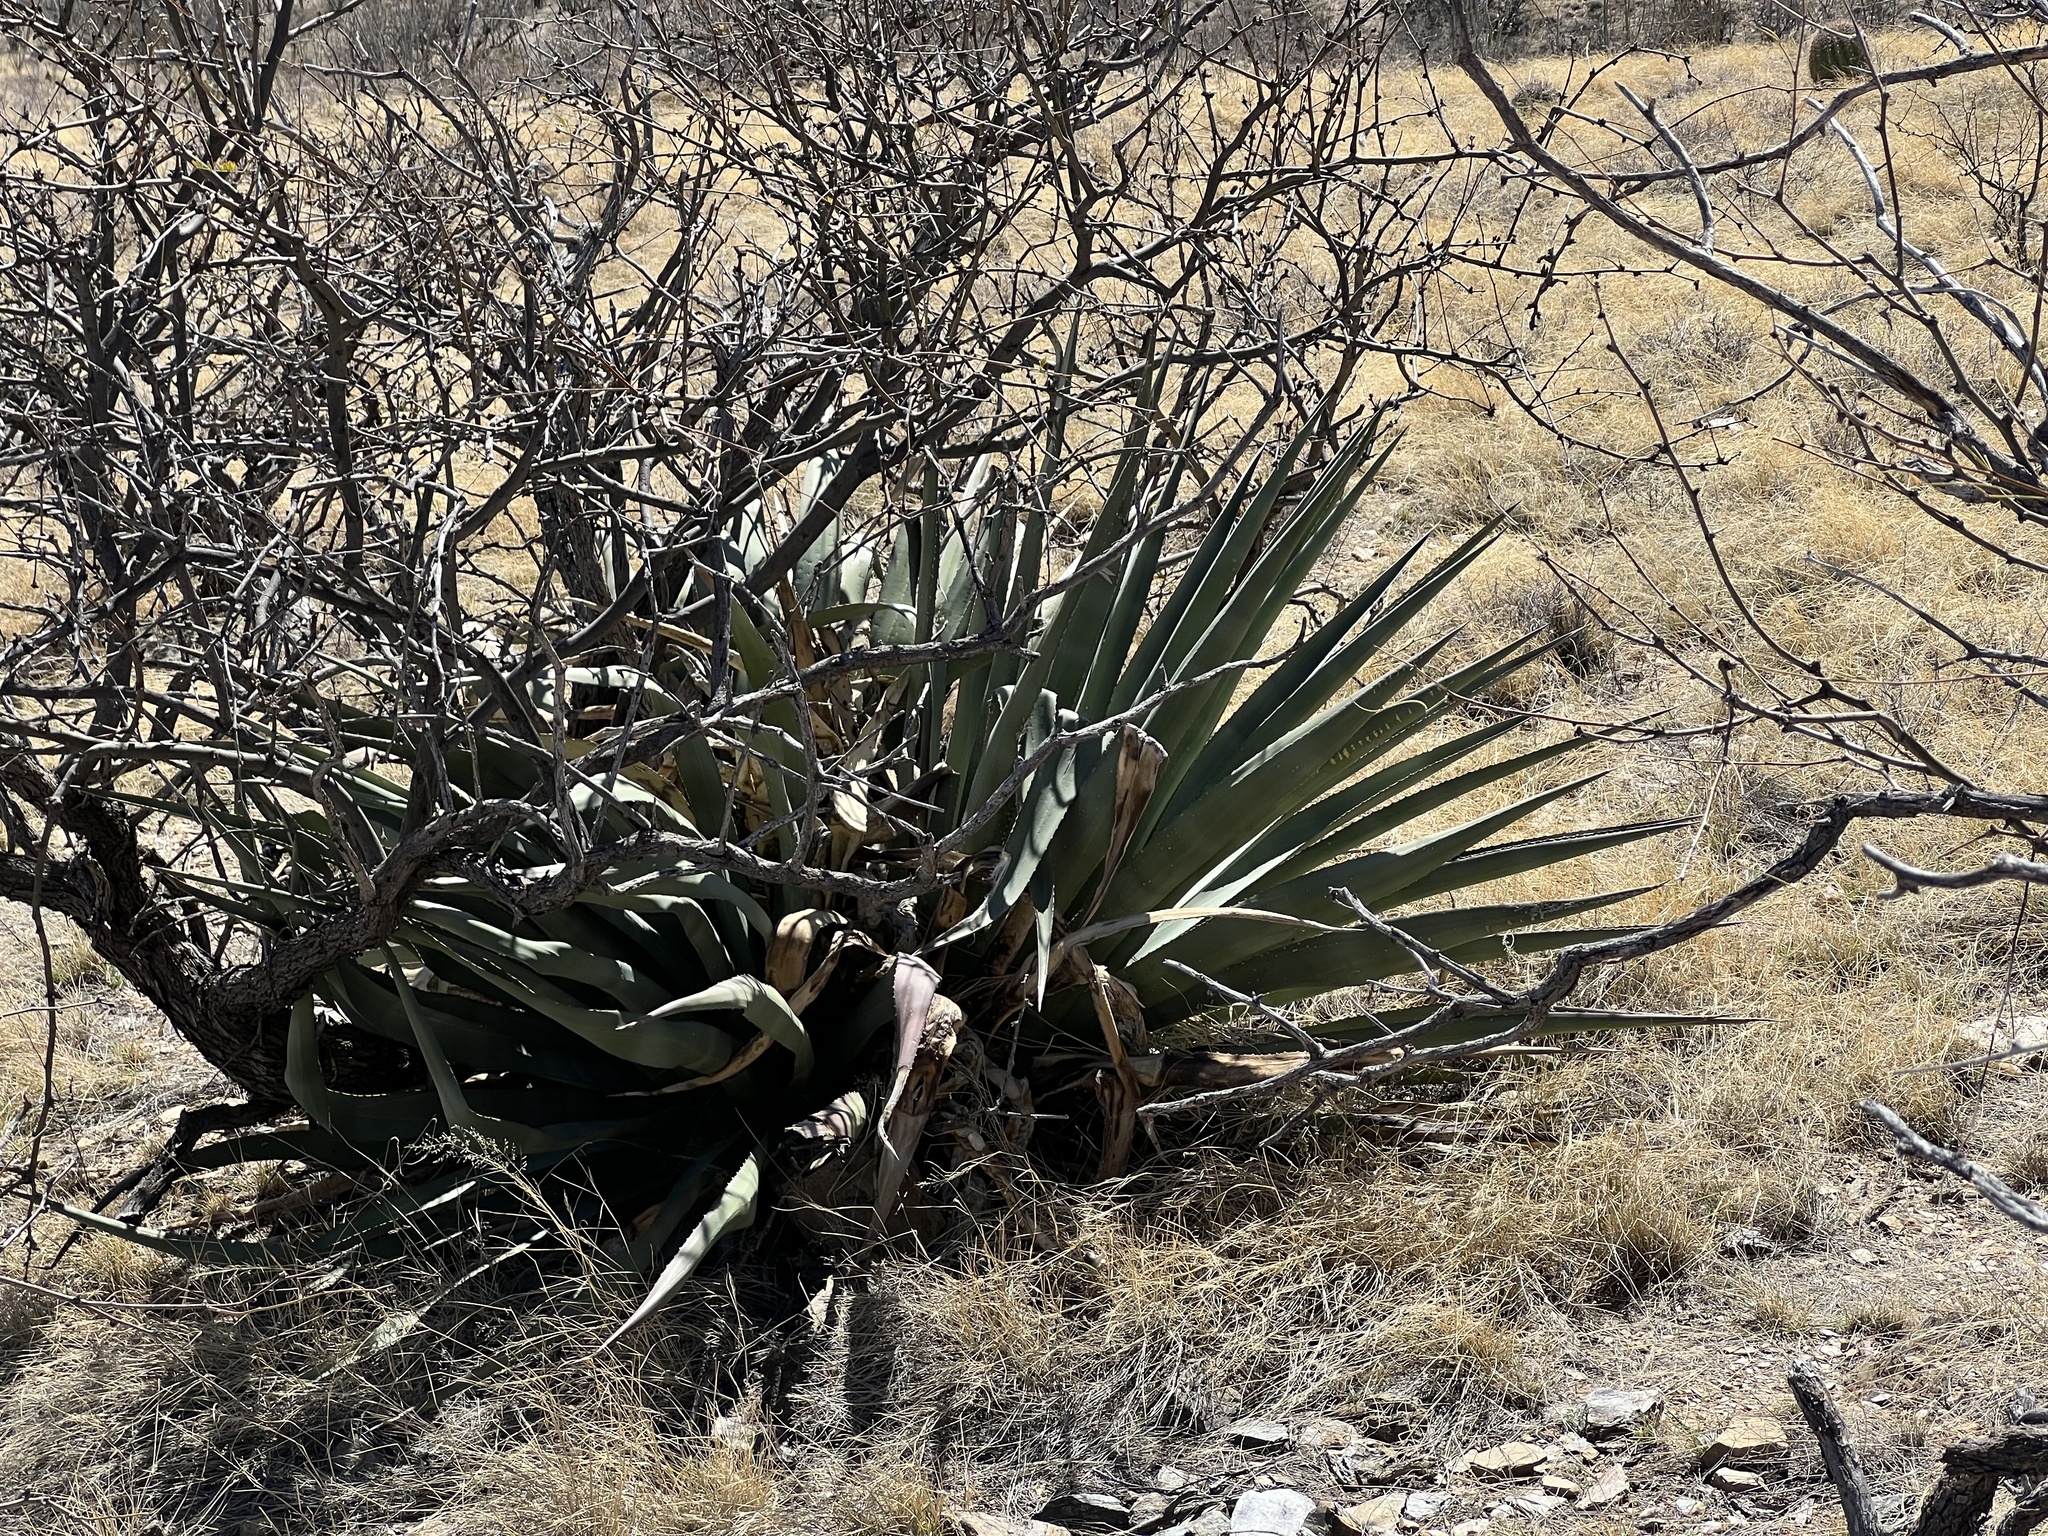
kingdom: Plantae
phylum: Tracheophyta
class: Liliopsida
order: Asparagales
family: Asparagaceae
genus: Agave
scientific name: Agave palmeri
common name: Palmer agave
